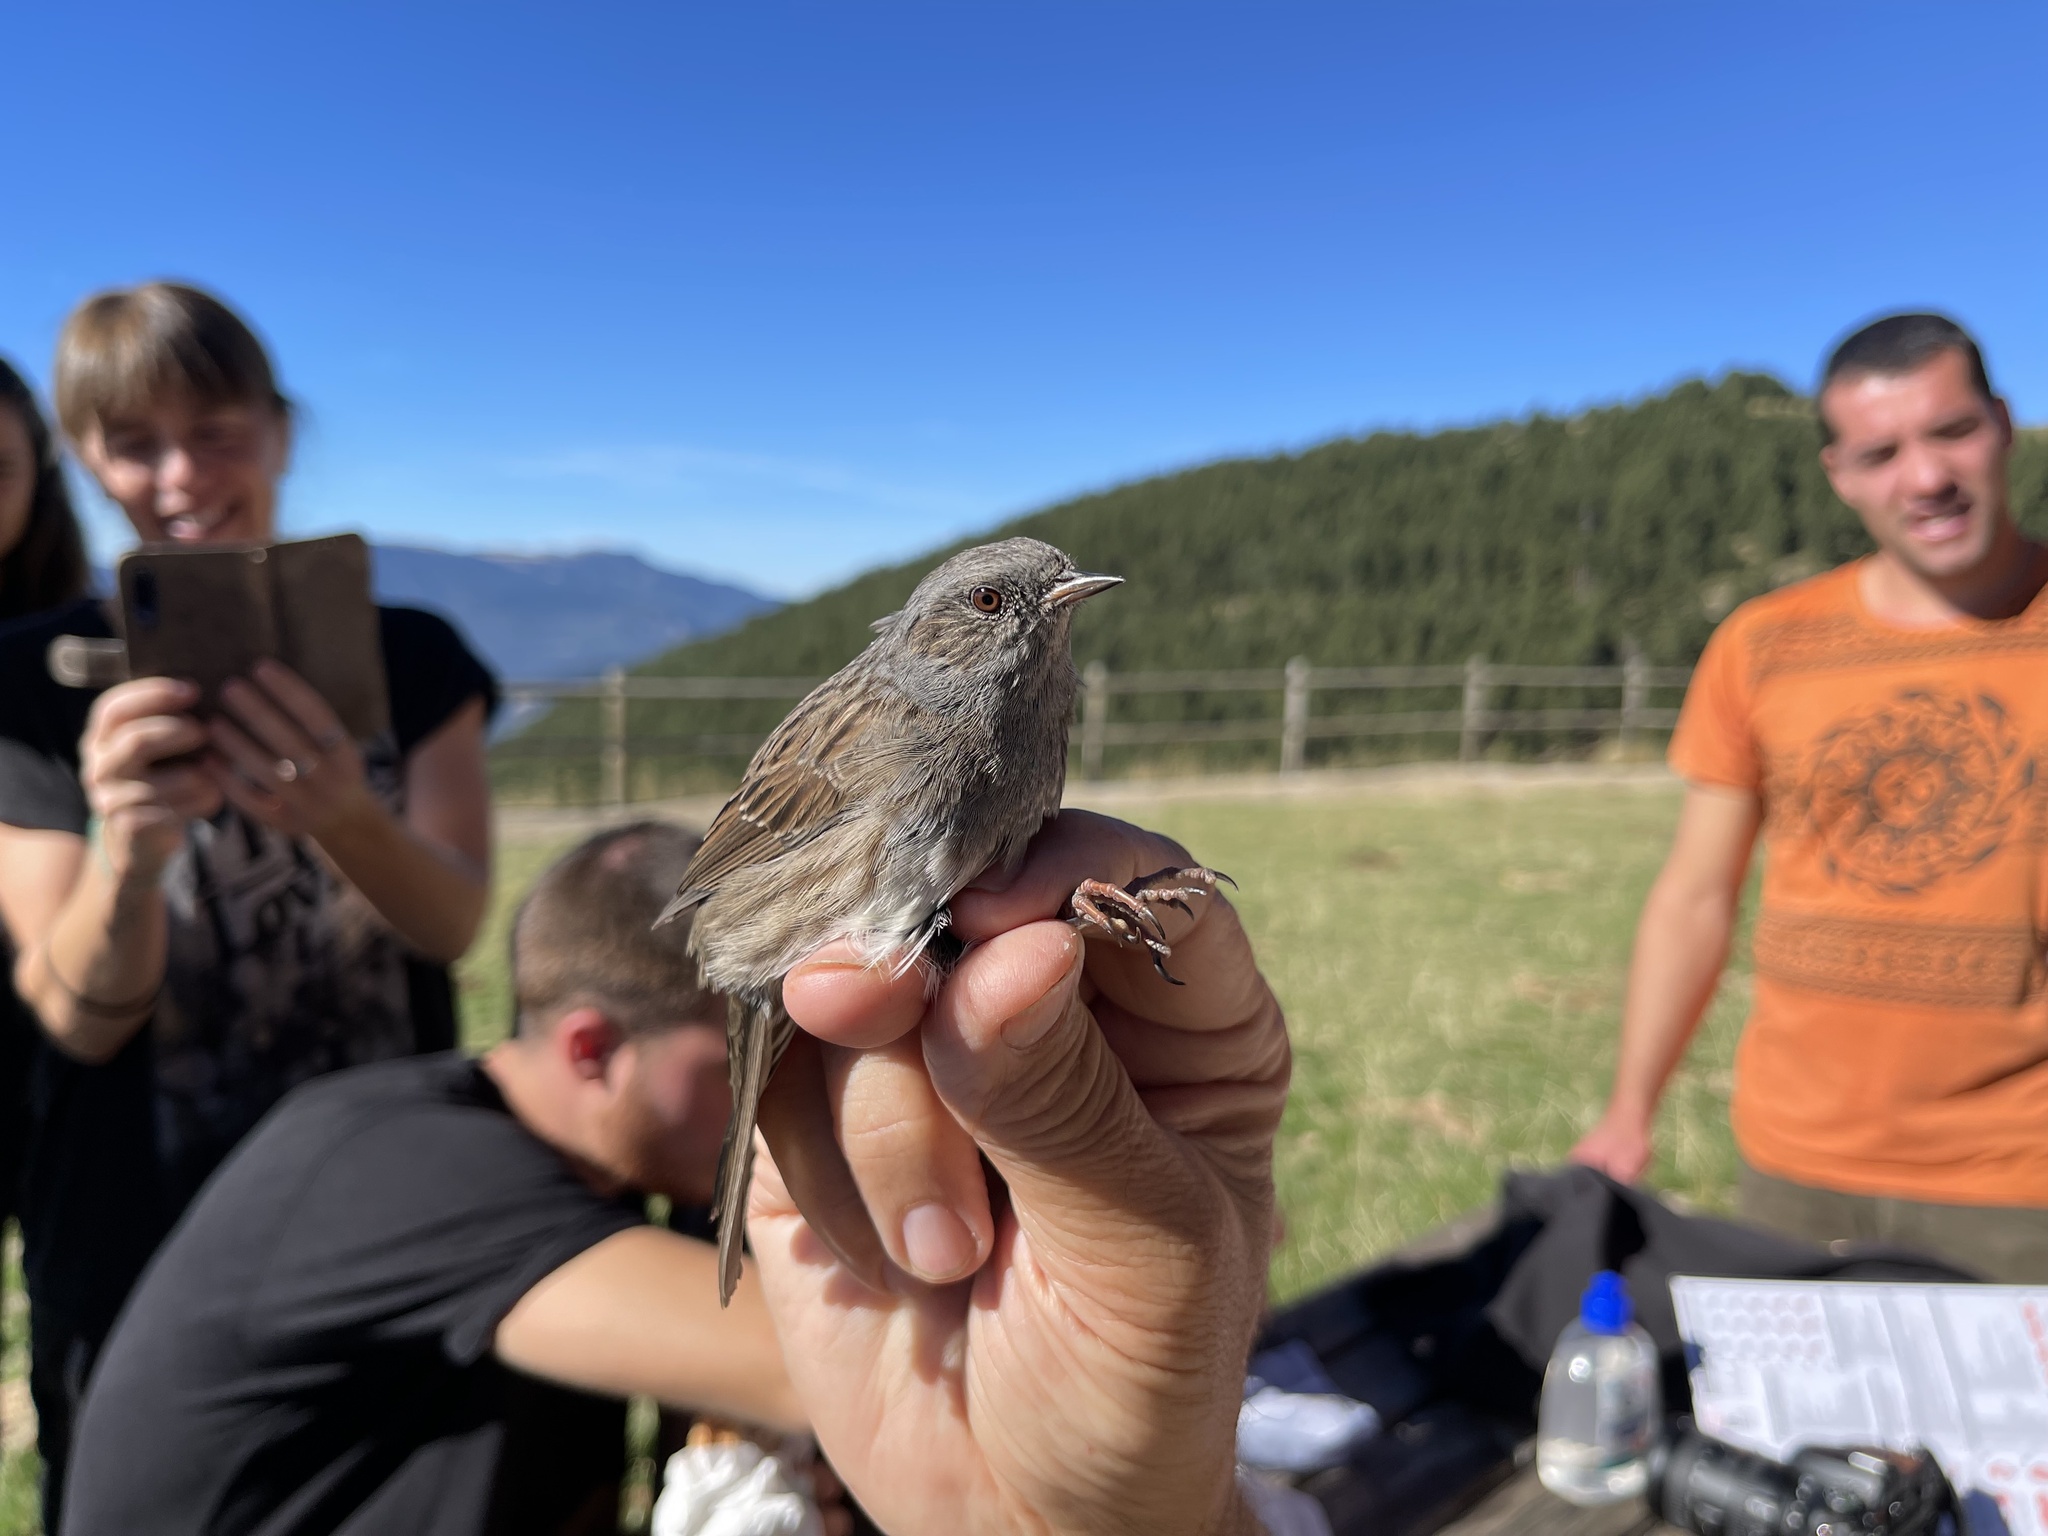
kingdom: Animalia
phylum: Chordata
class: Aves
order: Passeriformes
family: Prunellidae
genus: Prunella
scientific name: Prunella modularis
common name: Dunnock
